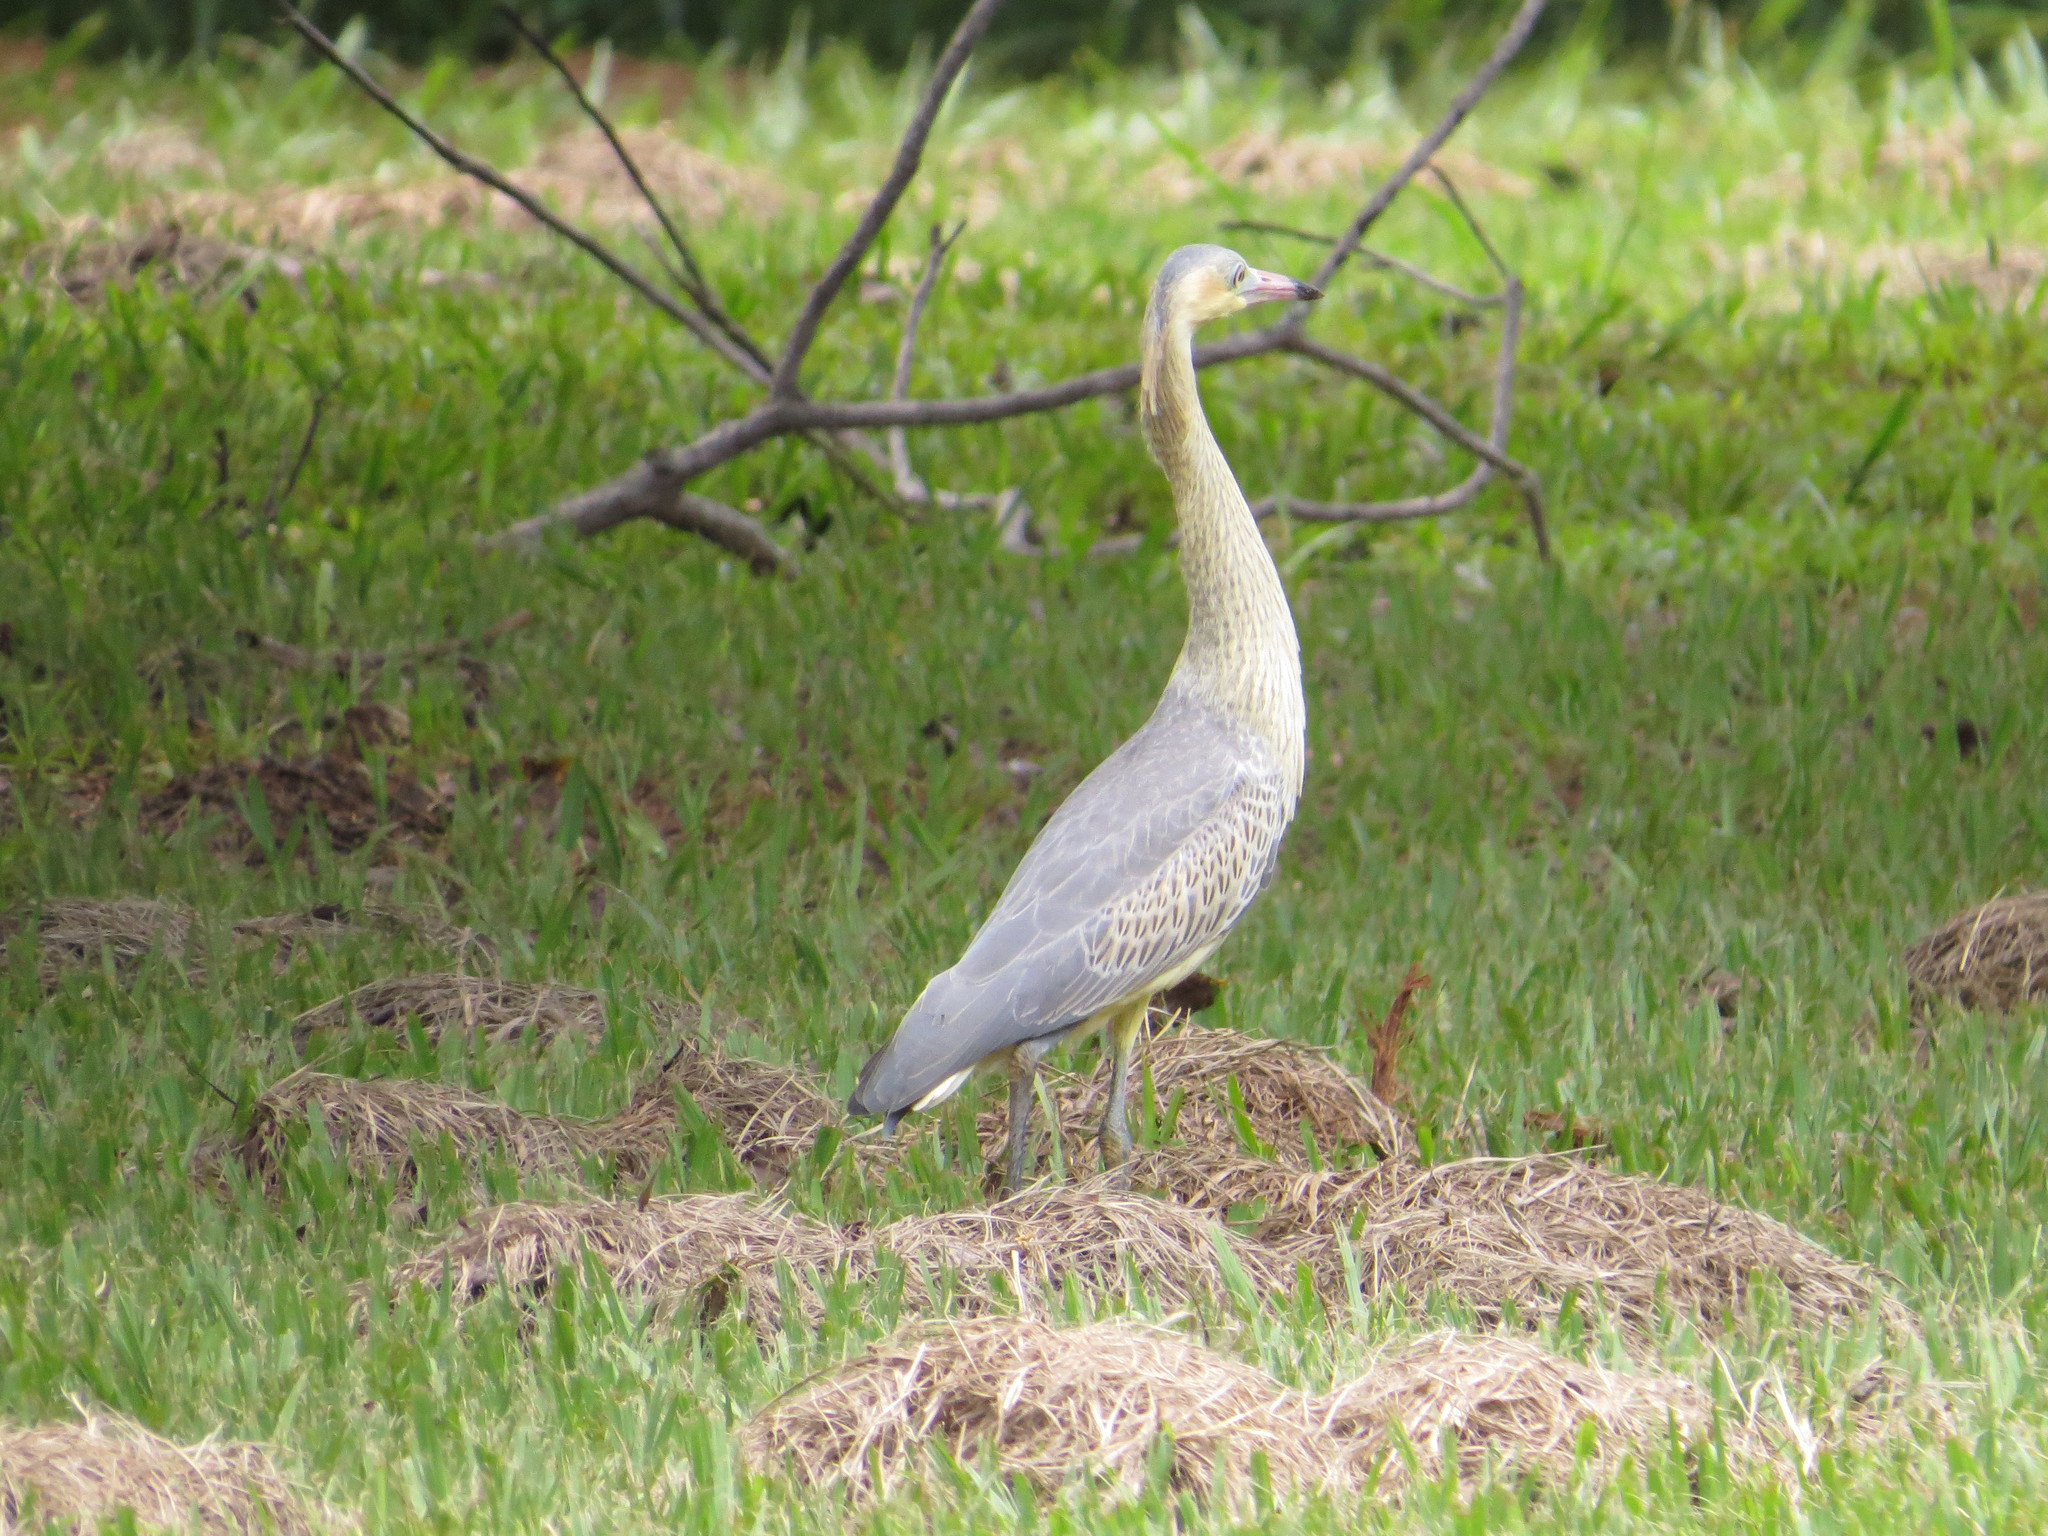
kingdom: Animalia
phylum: Chordata
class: Aves
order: Pelecaniformes
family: Ardeidae
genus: Syrigma
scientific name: Syrigma sibilatrix
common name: Whistling heron
